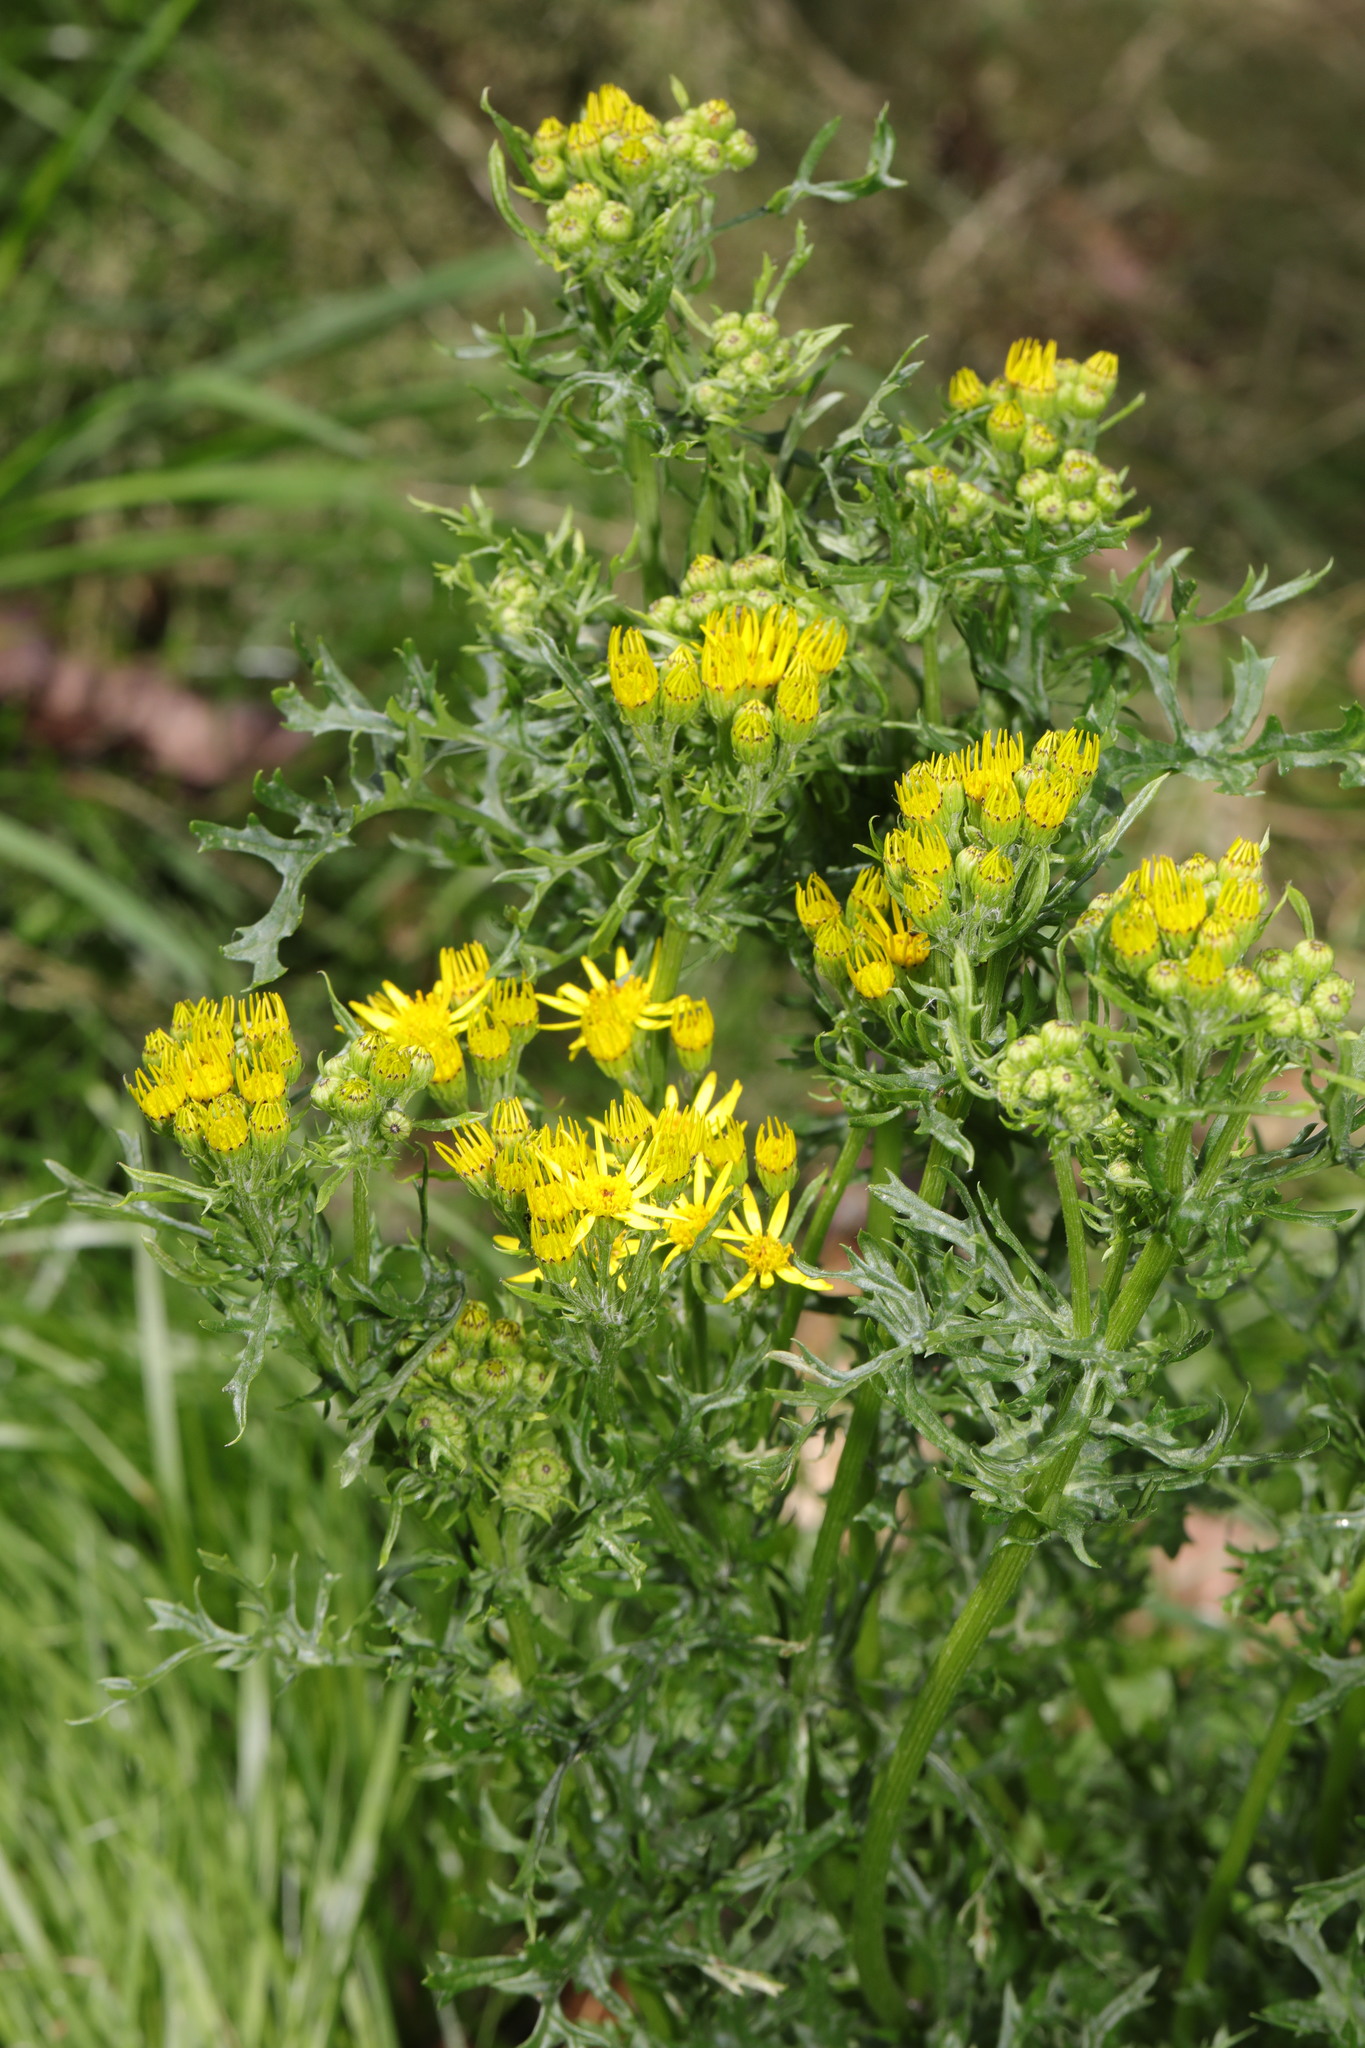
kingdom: Plantae
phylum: Tracheophyta
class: Magnoliopsida
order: Asterales
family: Asteraceae
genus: Jacobaea
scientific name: Jacobaea vulgaris
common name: Stinking willie
